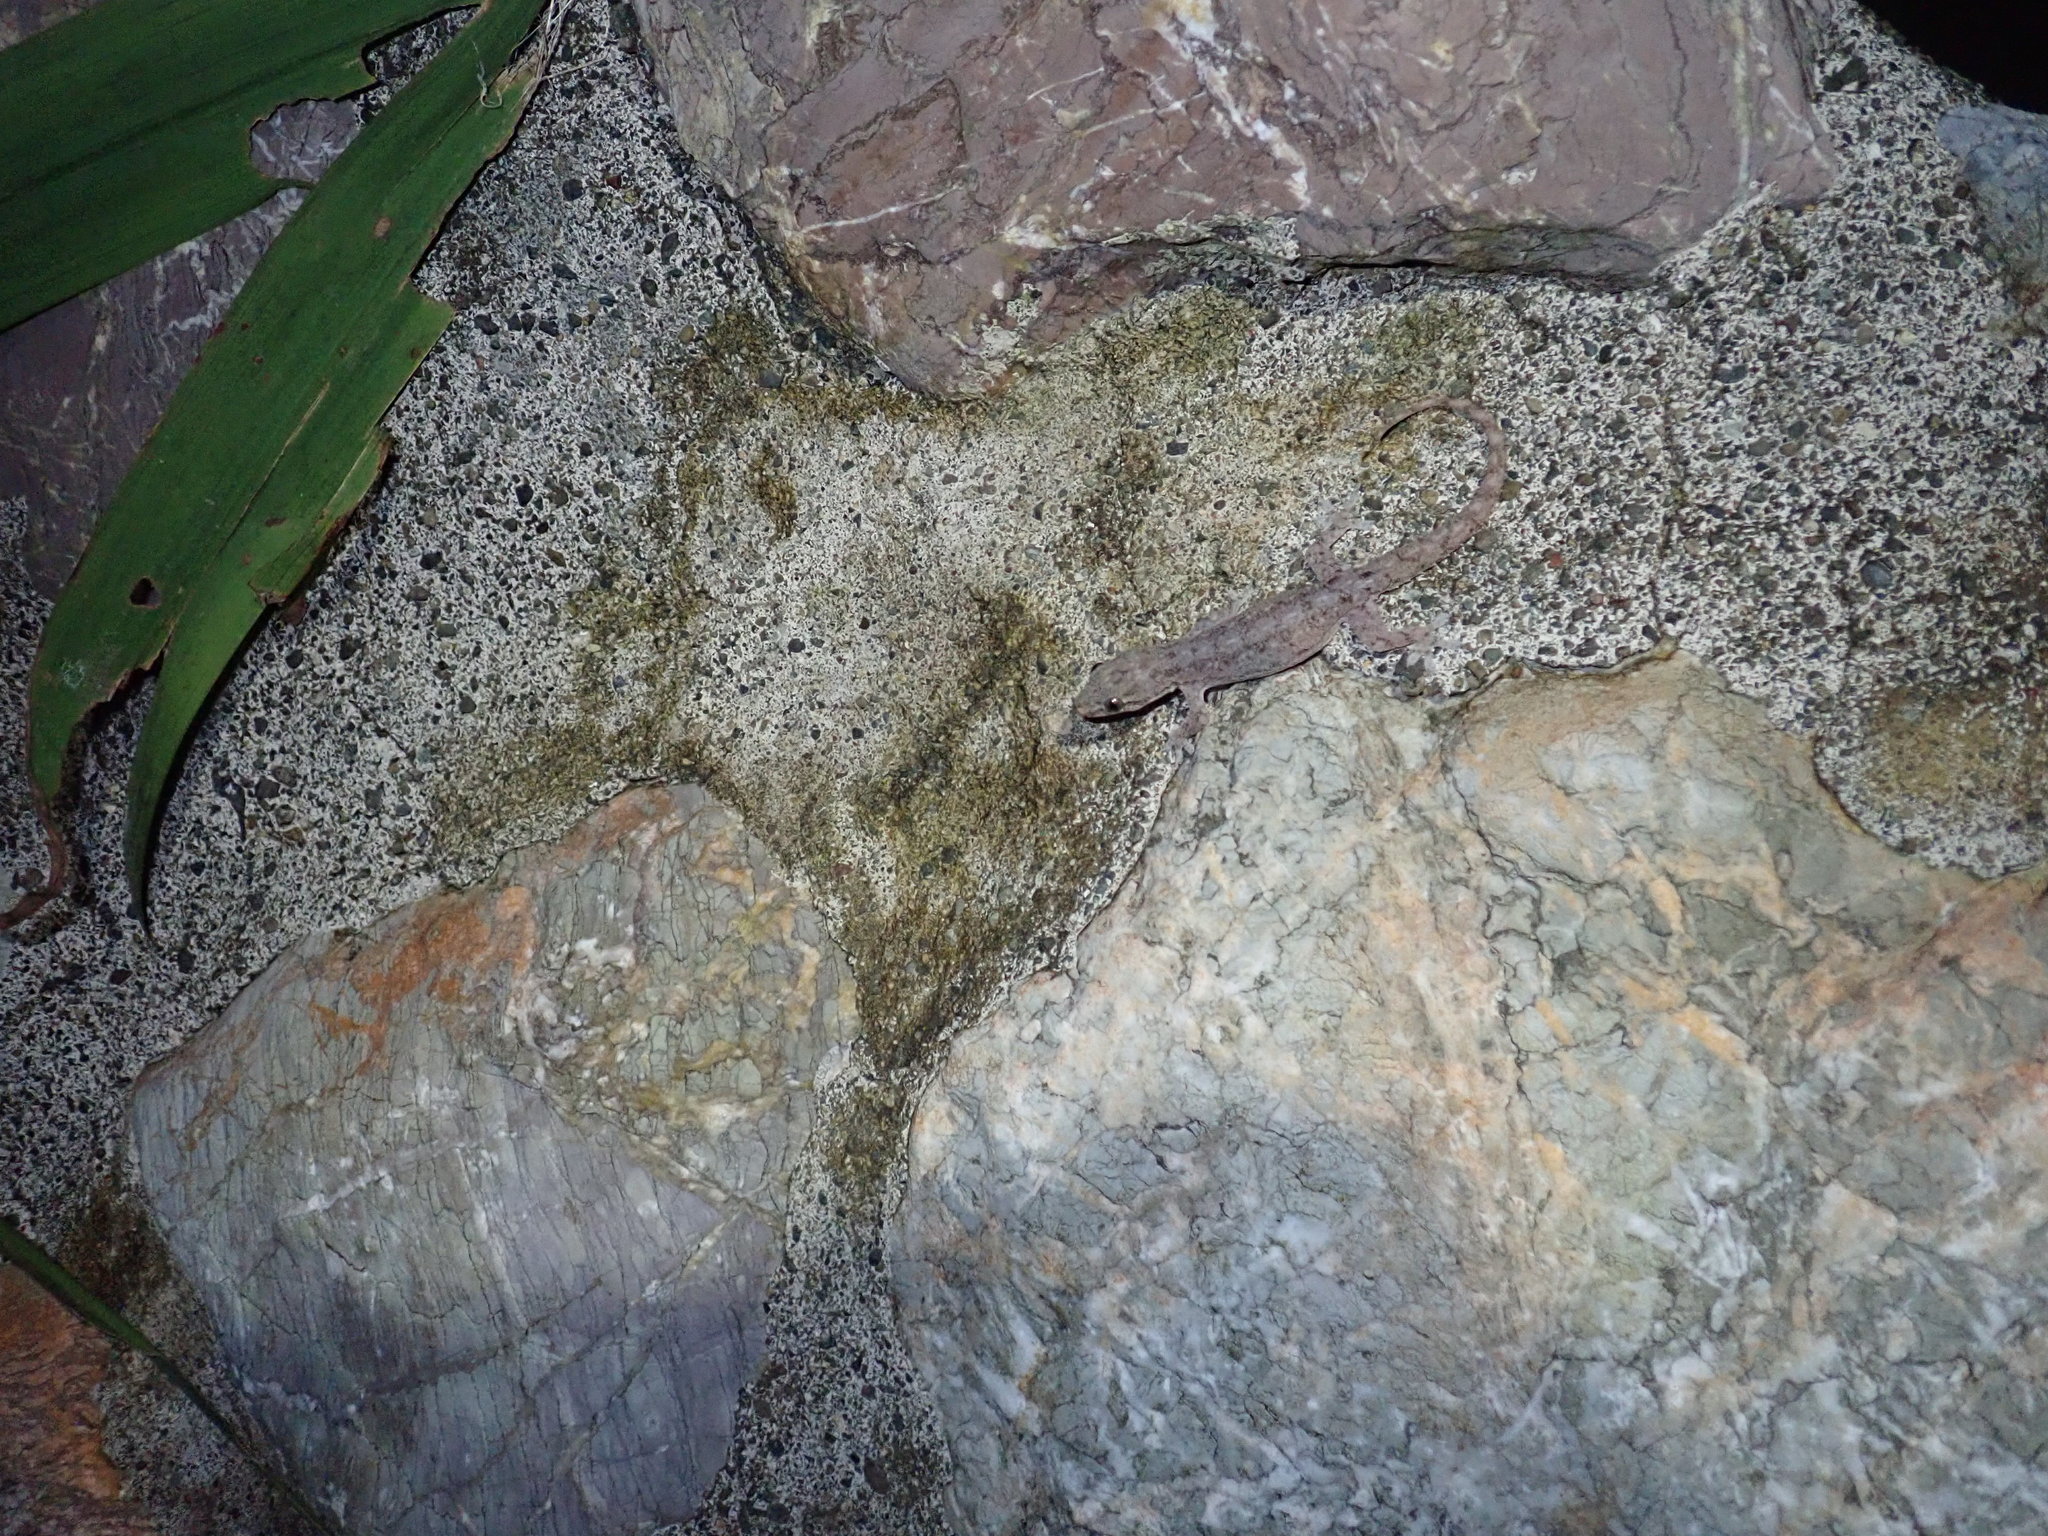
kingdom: Animalia
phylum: Chordata
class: Squamata
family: Gekkonidae
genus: Hemidactylus
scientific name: Hemidactylus frenatus
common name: Common house gecko
